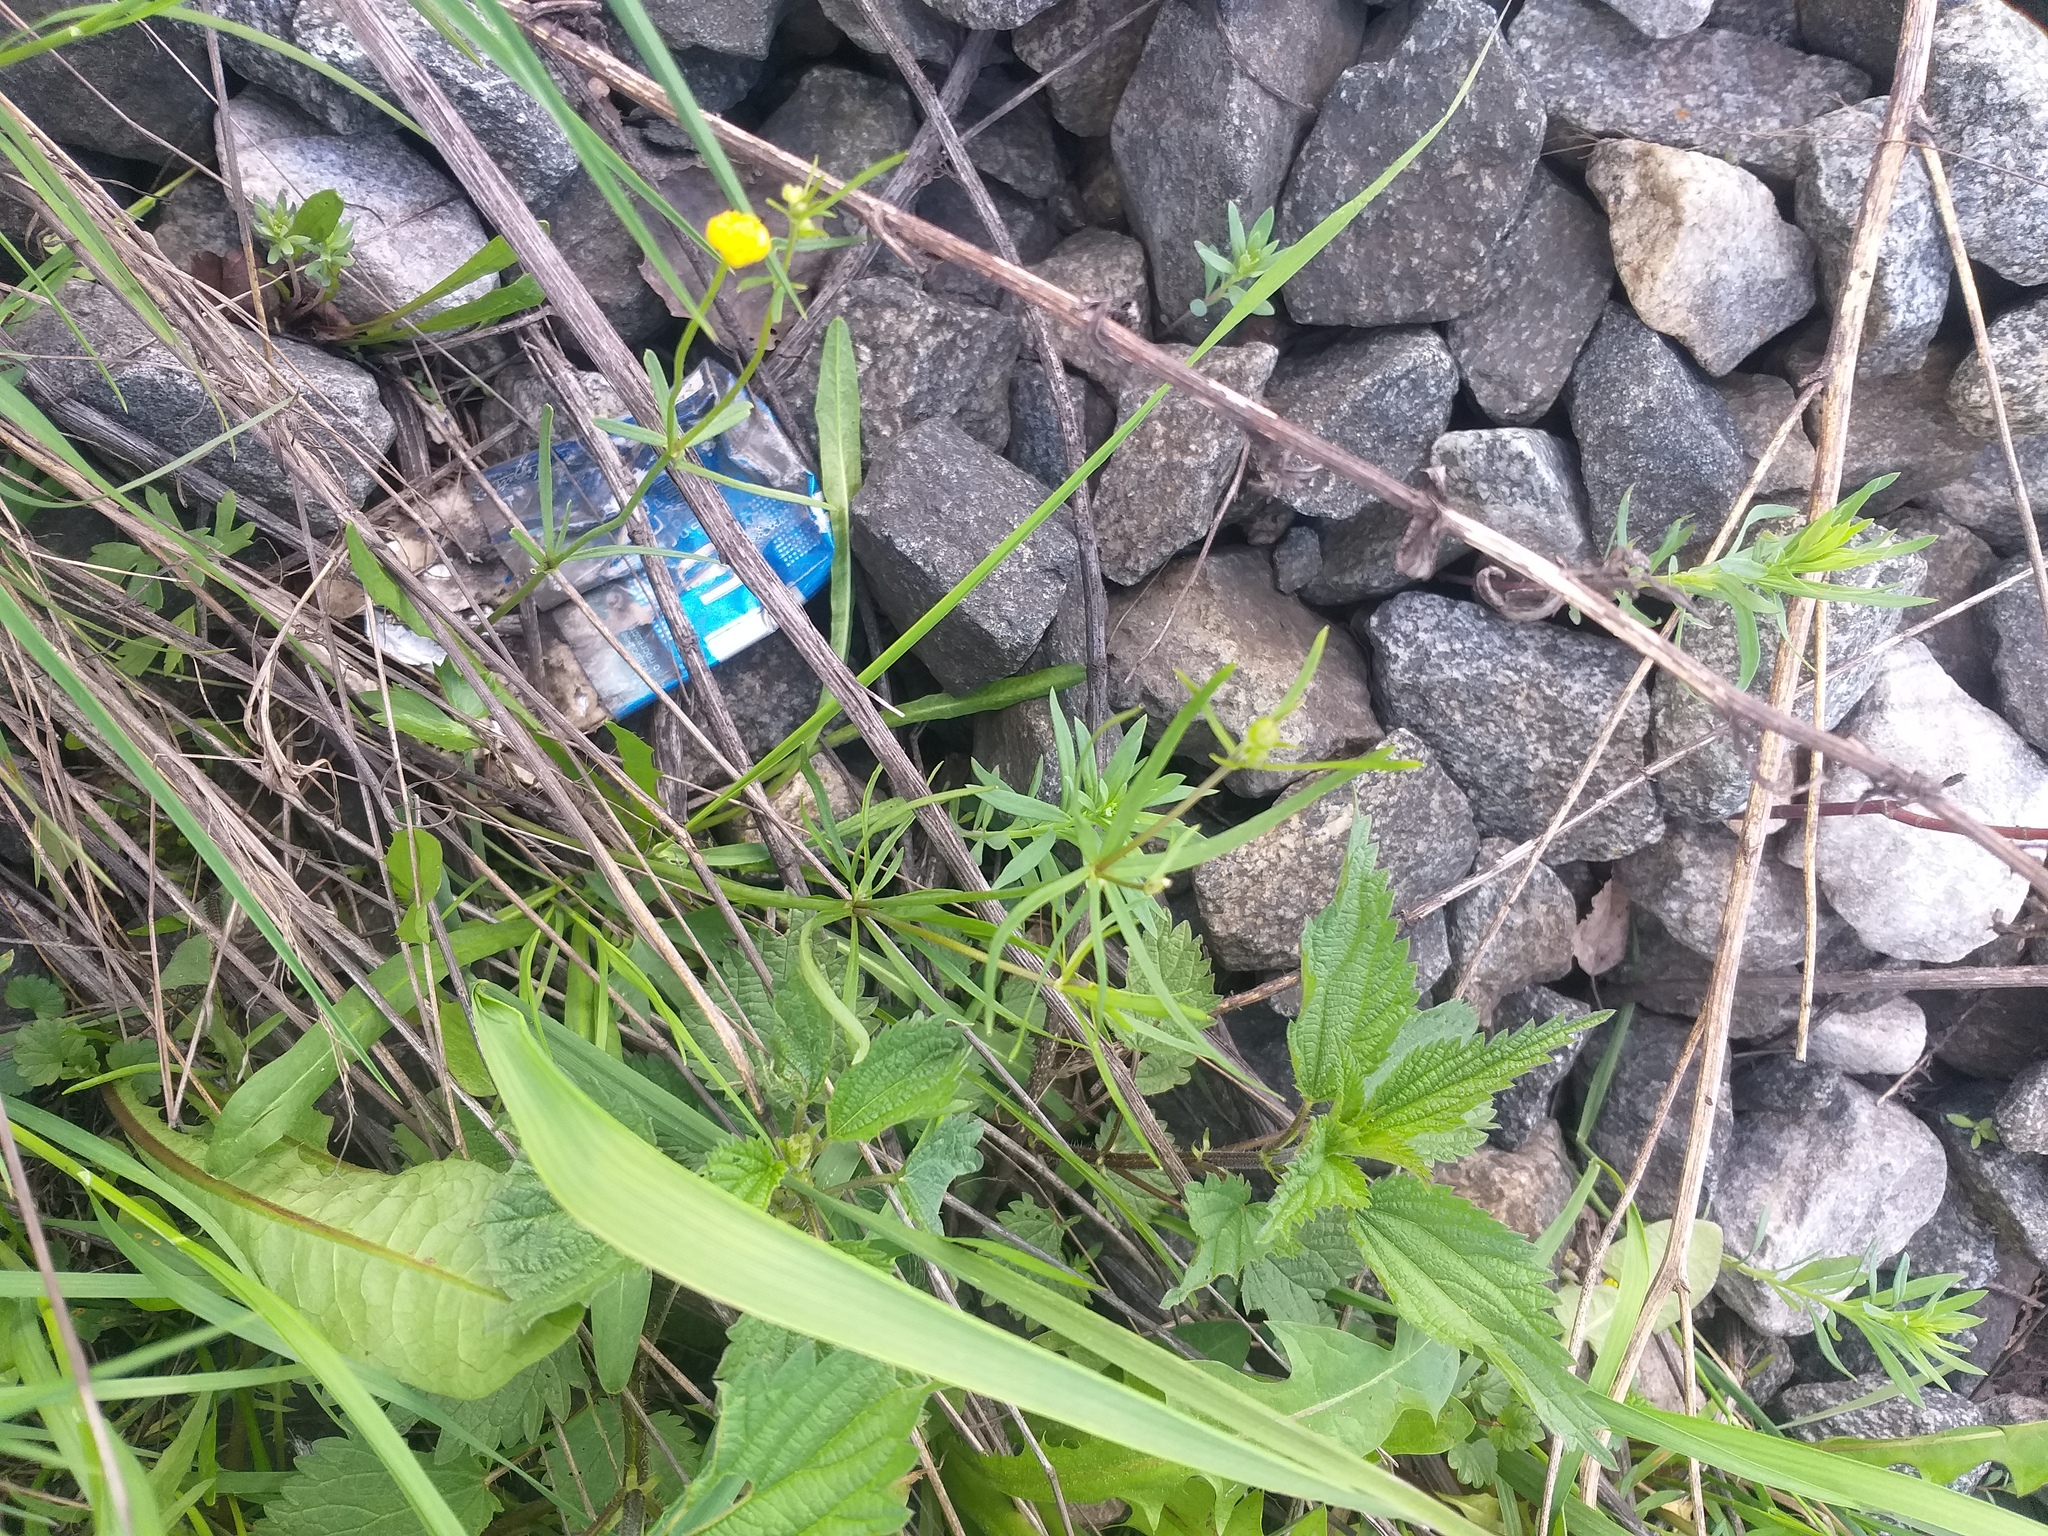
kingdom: Plantae
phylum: Tracheophyta
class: Magnoliopsida
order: Ranunculales
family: Ranunculaceae
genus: Ranunculus
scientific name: Ranunculus auricomus
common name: Goldilocks buttercup
